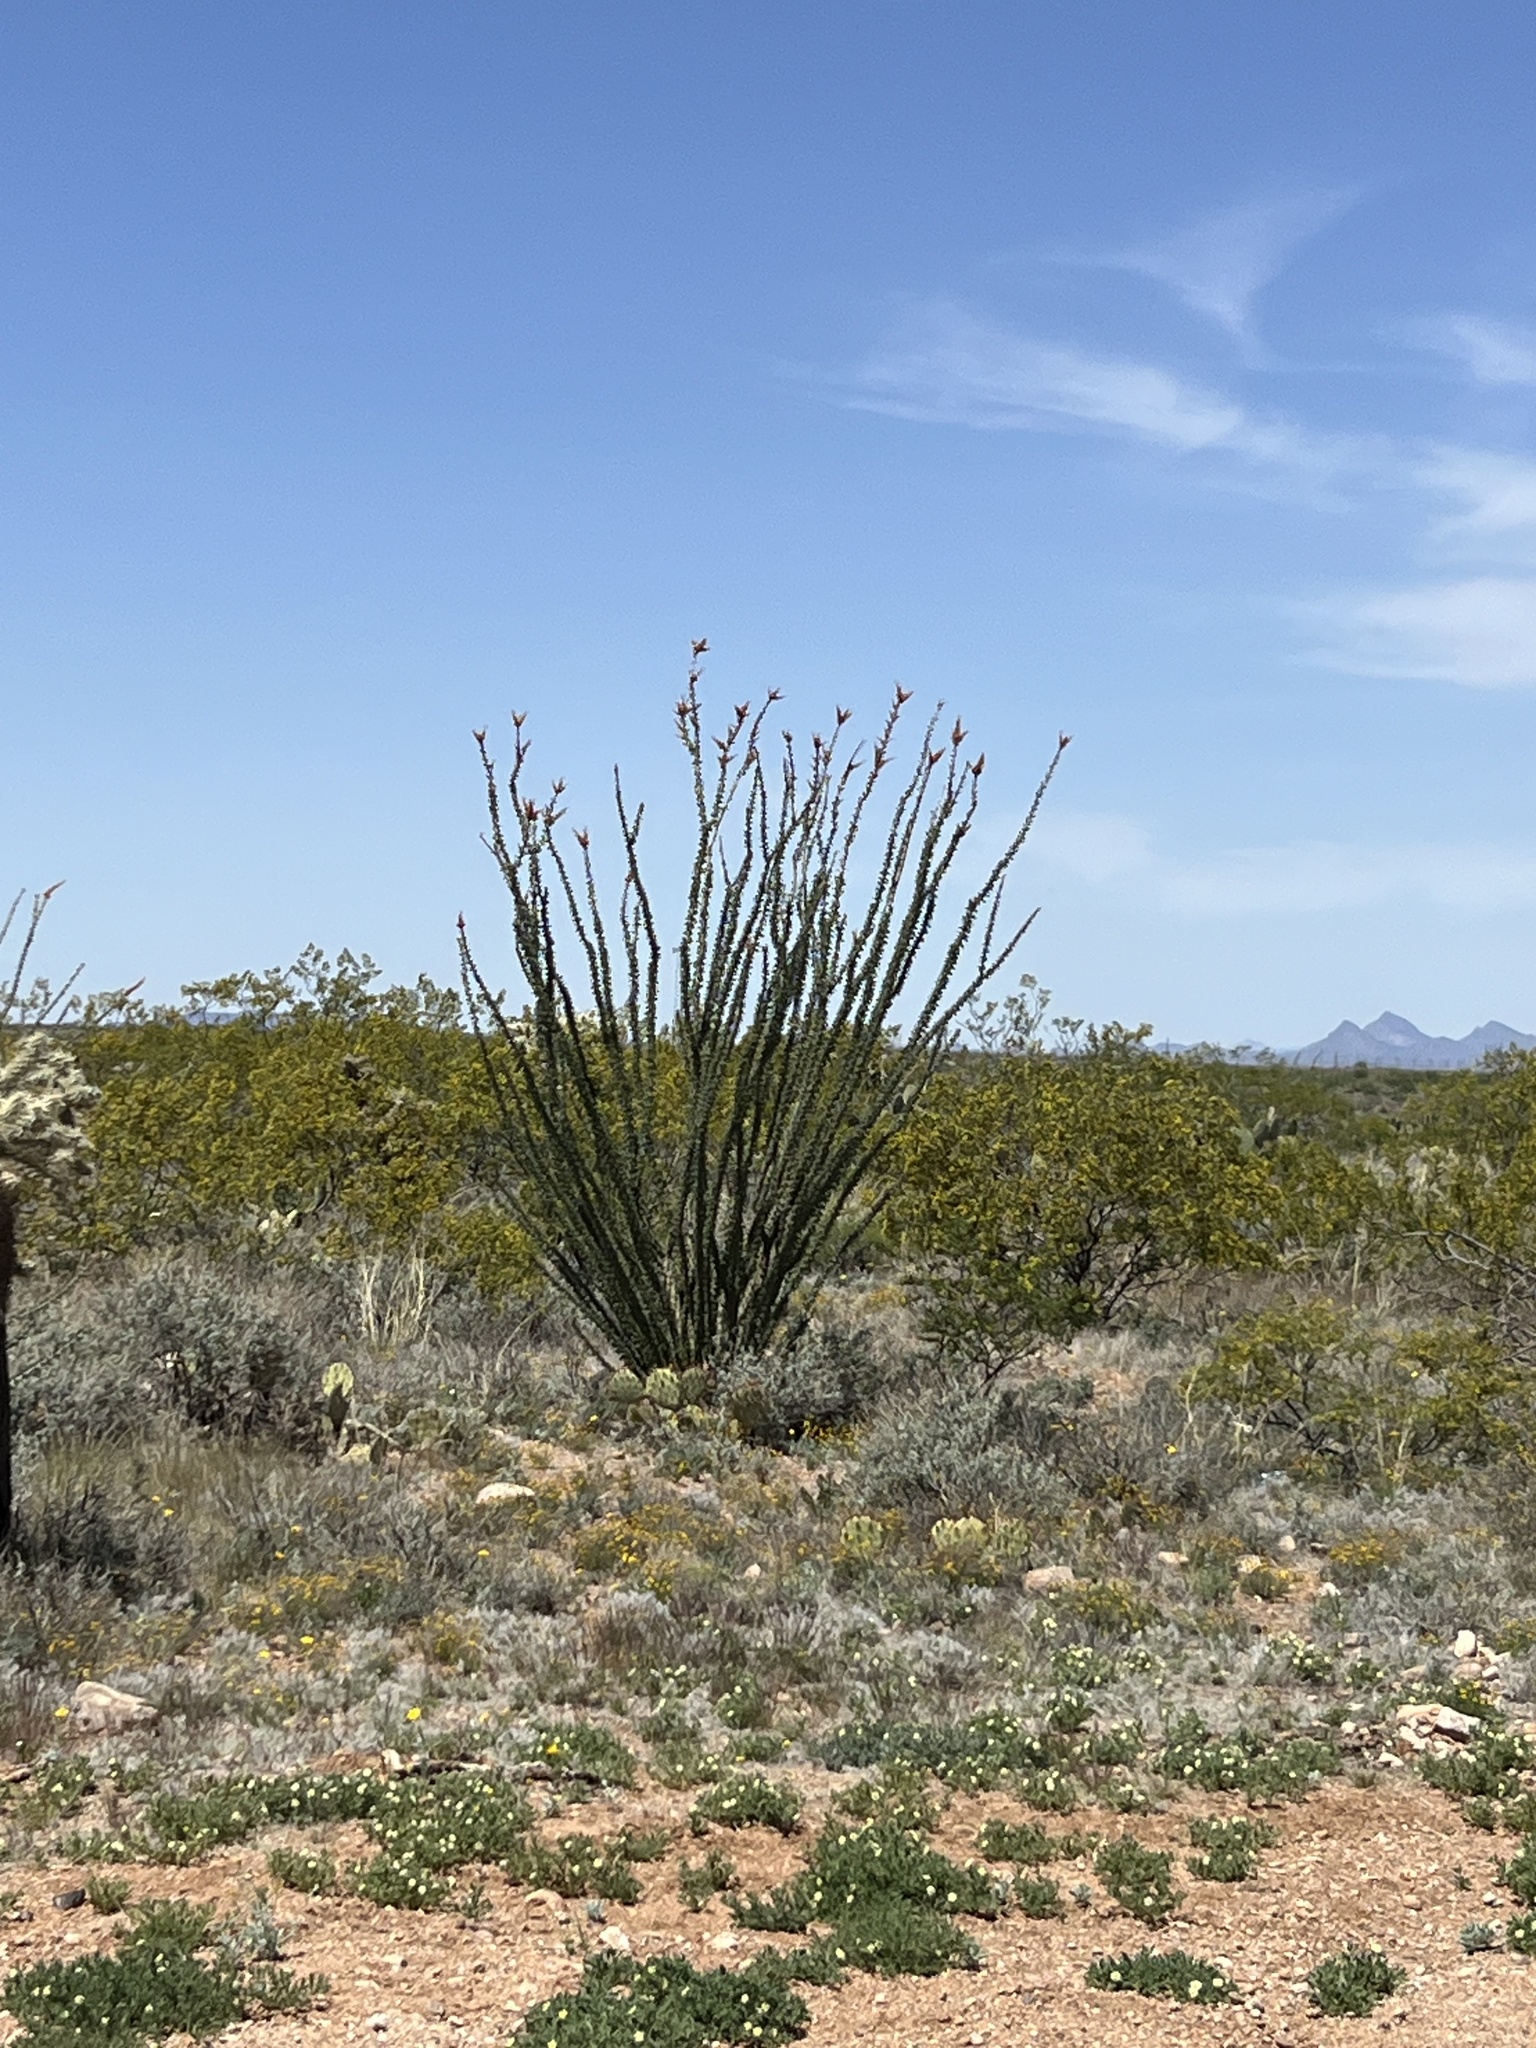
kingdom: Plantae
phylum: Tracheophyta
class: Magnoliopsida
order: Ericales
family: Fouquieriaceae
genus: Fouquieria
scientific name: Fouquieria splendens
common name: Vine-cactus
